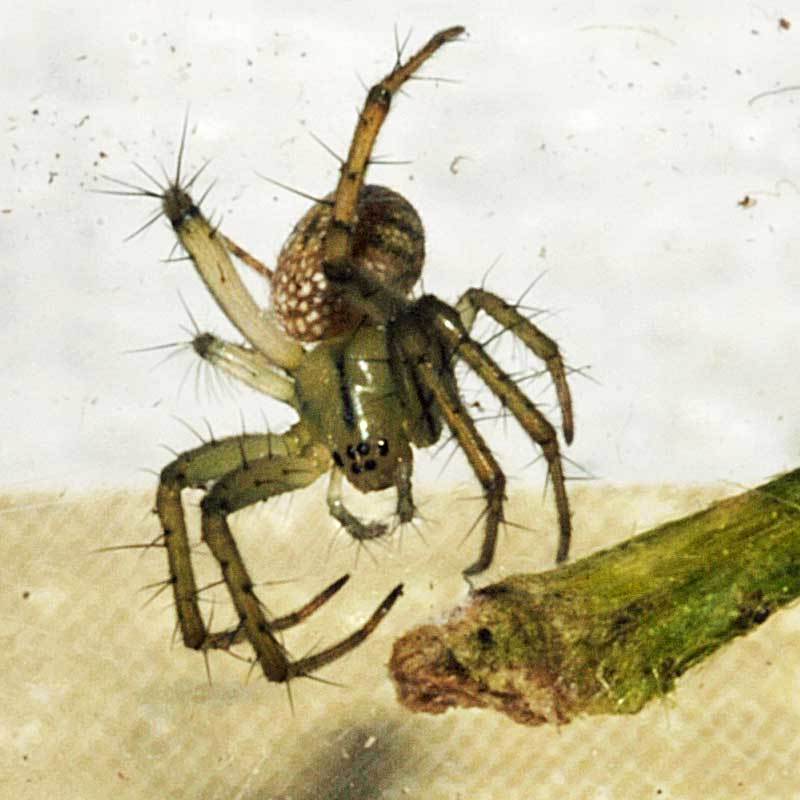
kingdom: Animalia
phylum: Arthropoda
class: Arachnida
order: Araneae
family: Araneidae
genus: Mangora
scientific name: Mangora gibberosa
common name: Lined orbweaver
